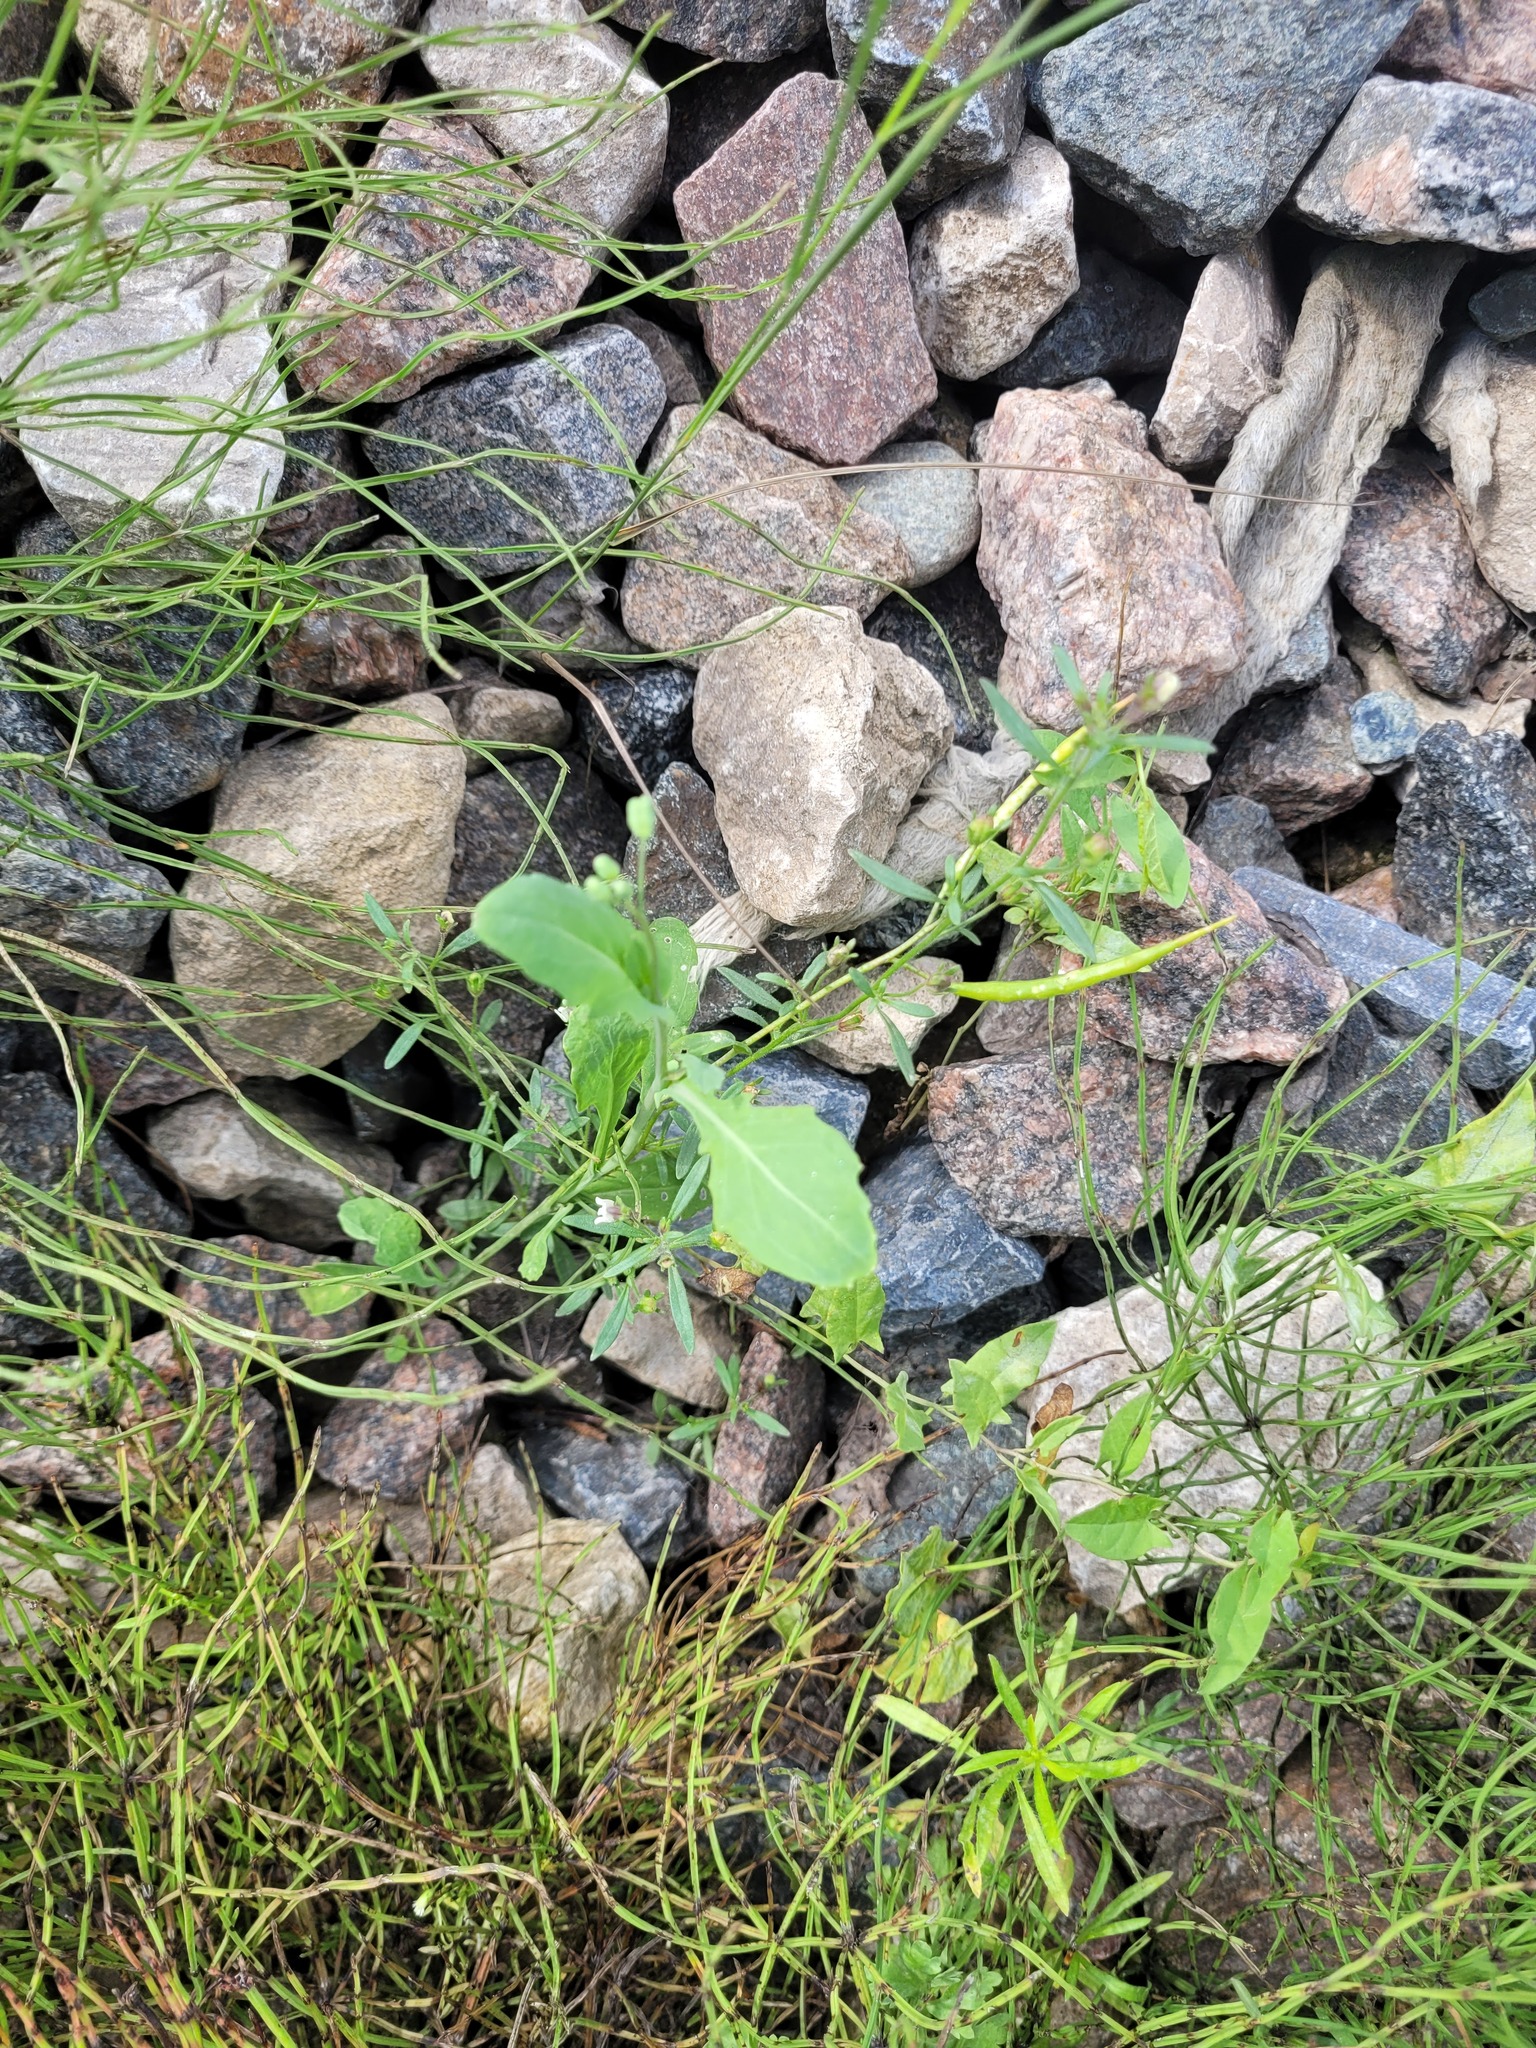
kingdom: Plantae
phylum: Tracheophyta
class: Magnoliopsida
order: Lamiales
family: Plantaginaceae
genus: Chaenorhinum
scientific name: Chaenorhinum minus
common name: Dwarf snapdragon
